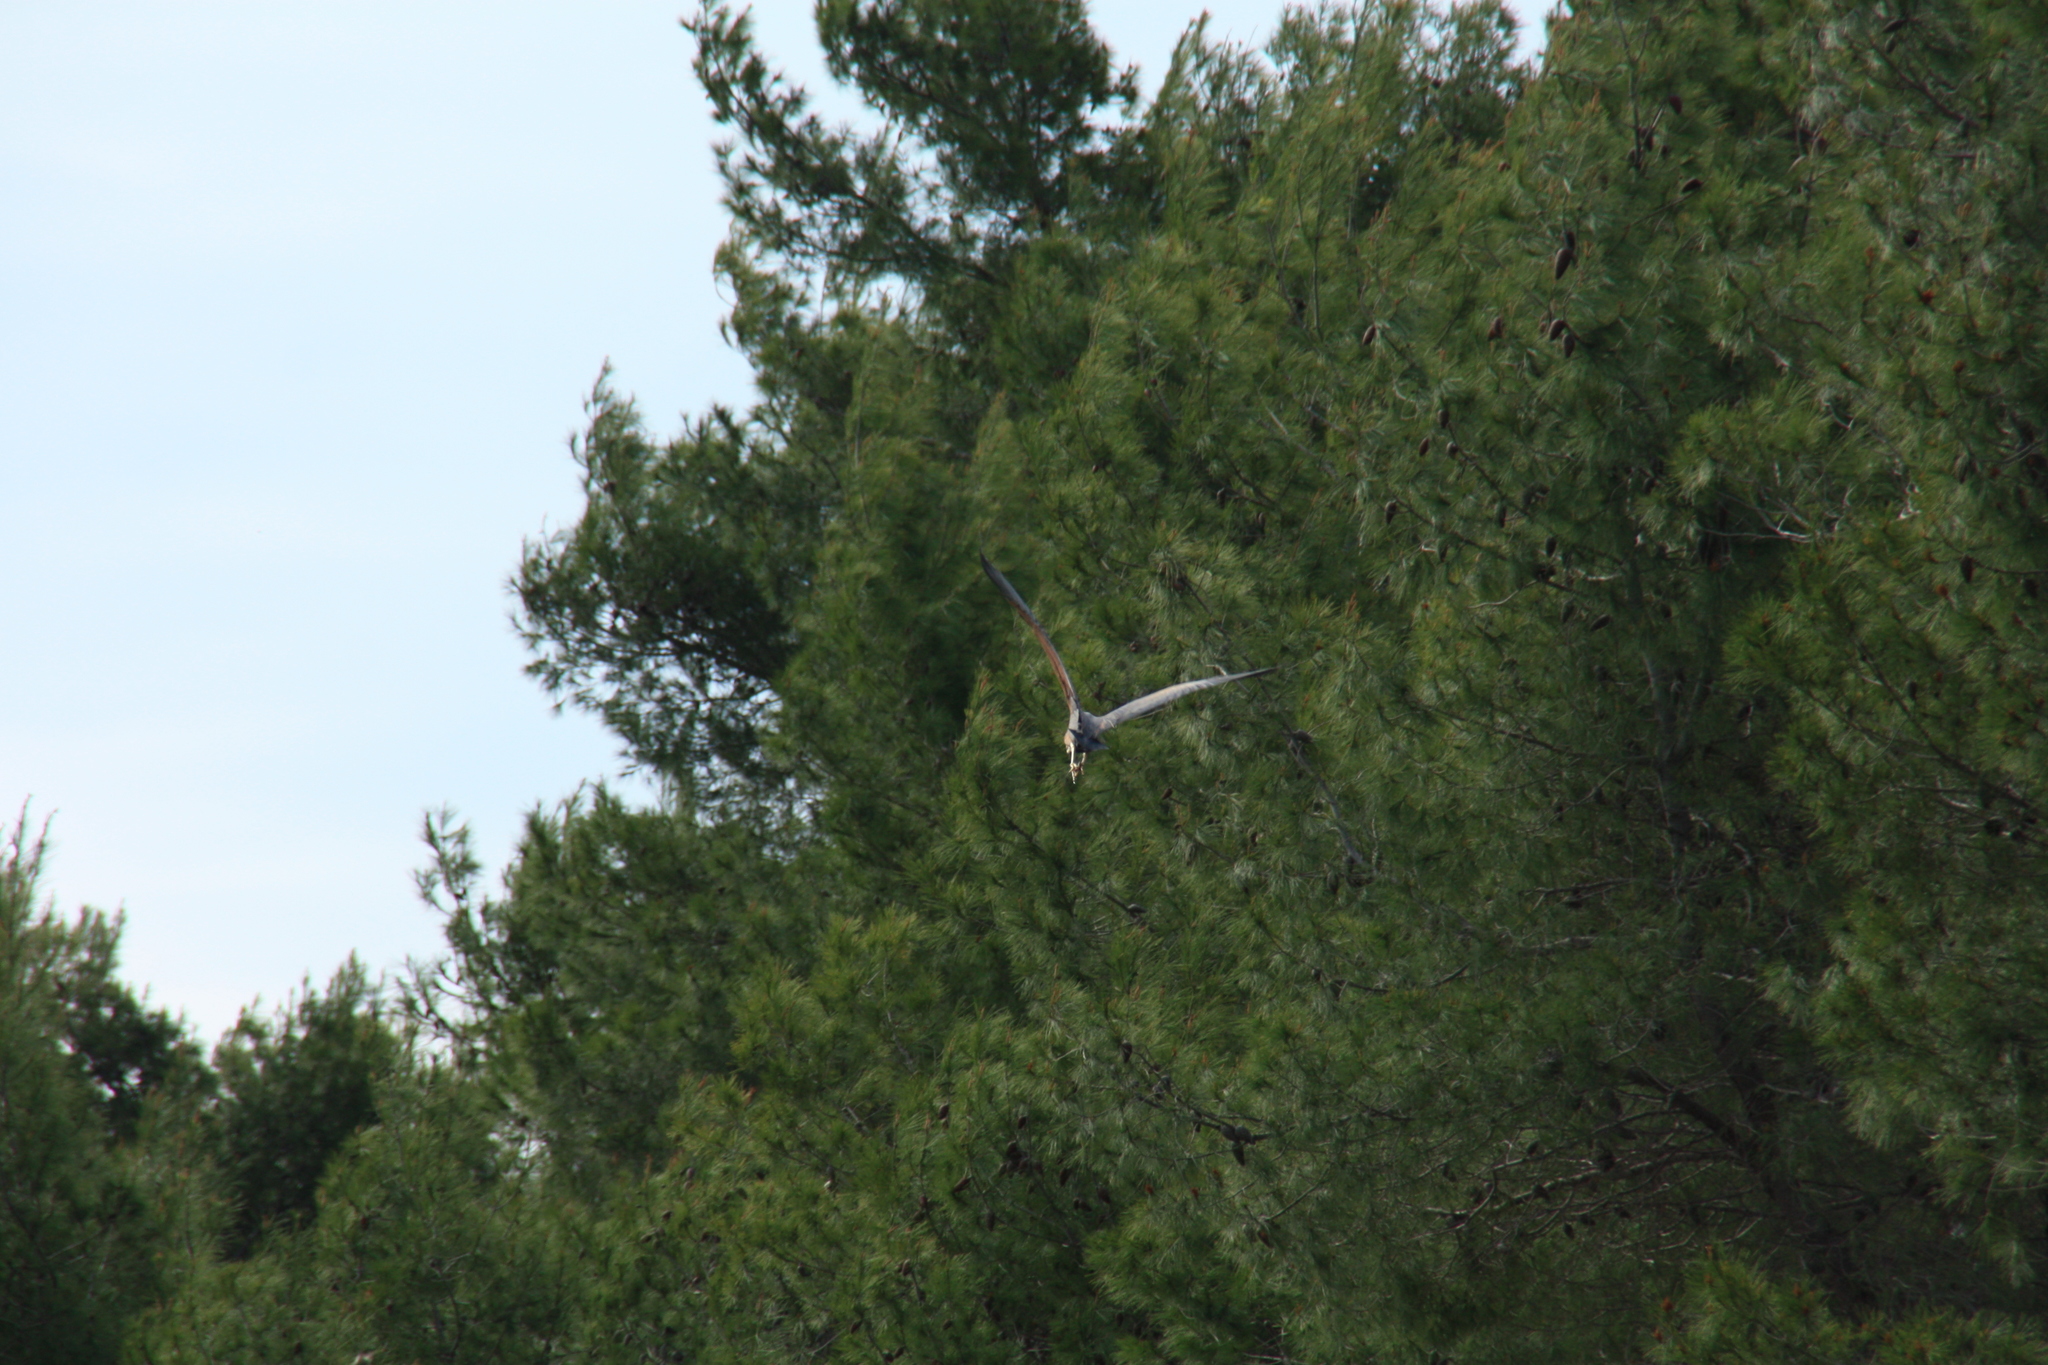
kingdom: Animalia
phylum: Chordata
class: Aves
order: Pelecaniformes
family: Ardeidae
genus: Ardea
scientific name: Ardea purpurea
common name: Purple heron
